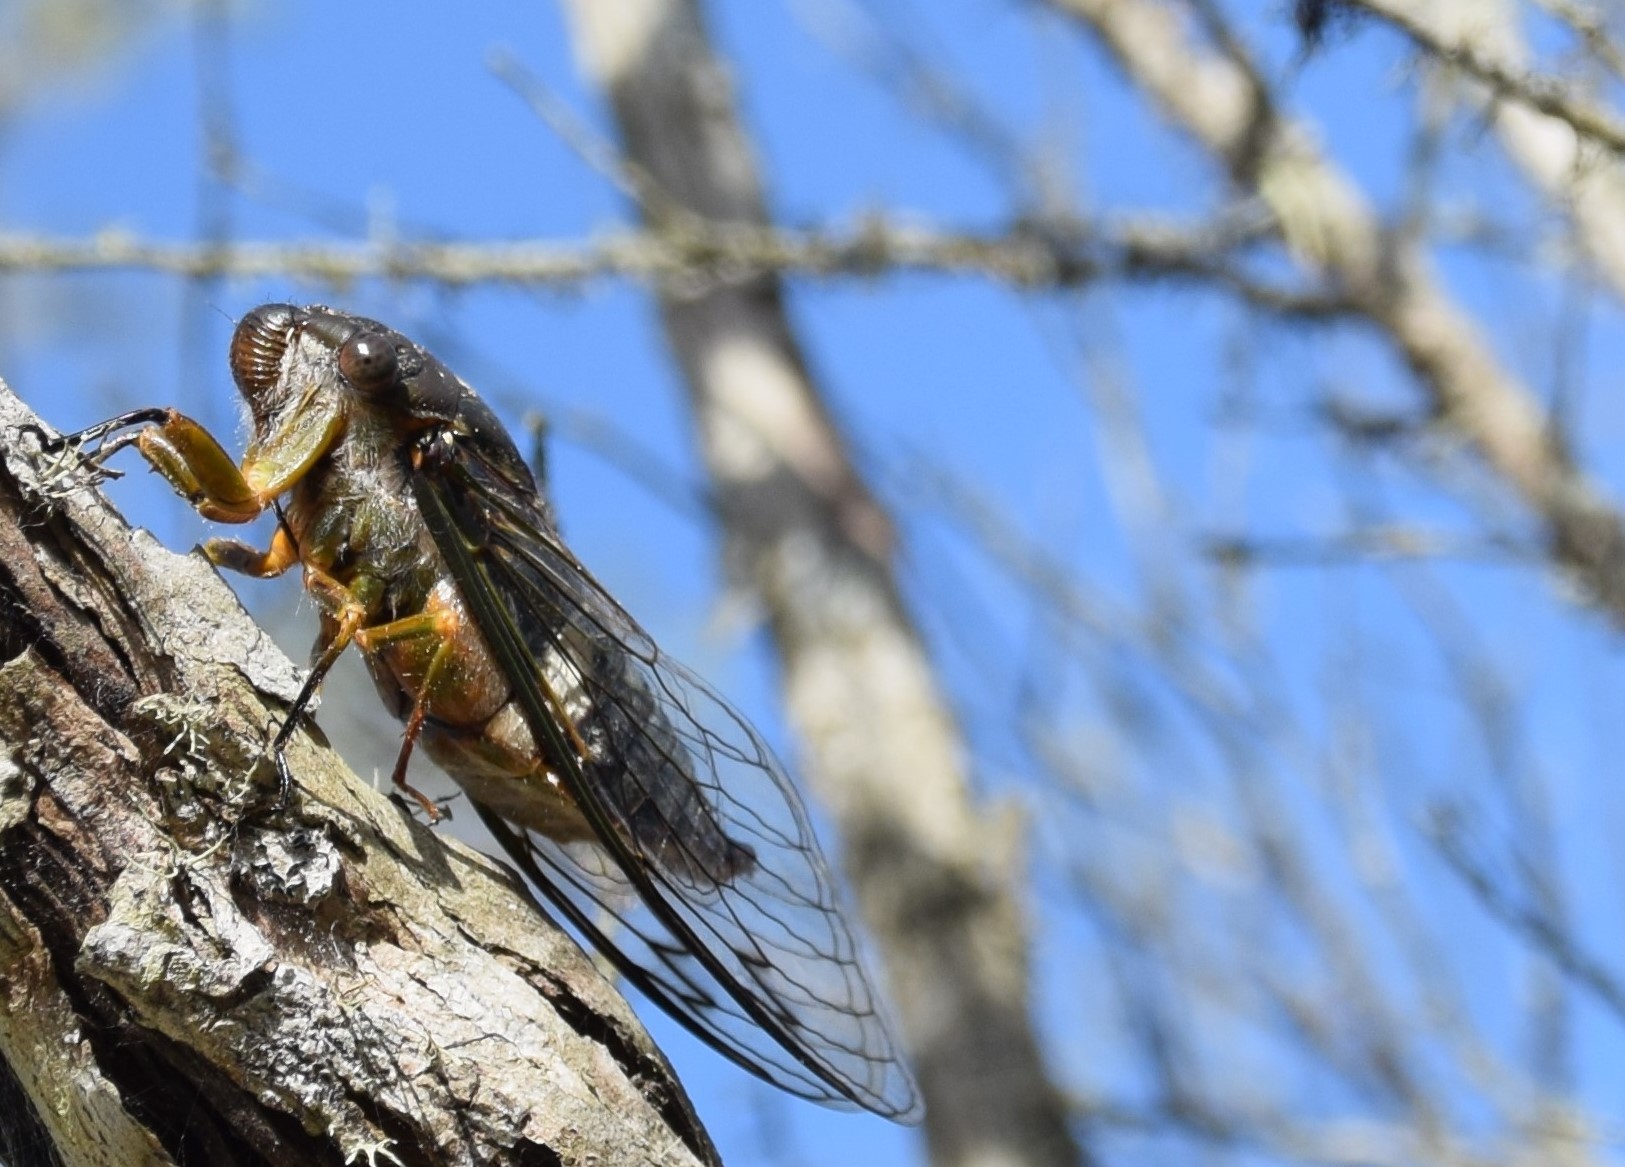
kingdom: Animalia
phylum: Arthropoda
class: Insecta
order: Hemiptera
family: Cicadidae
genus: Psaltoda
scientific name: Psaltoda plaga
